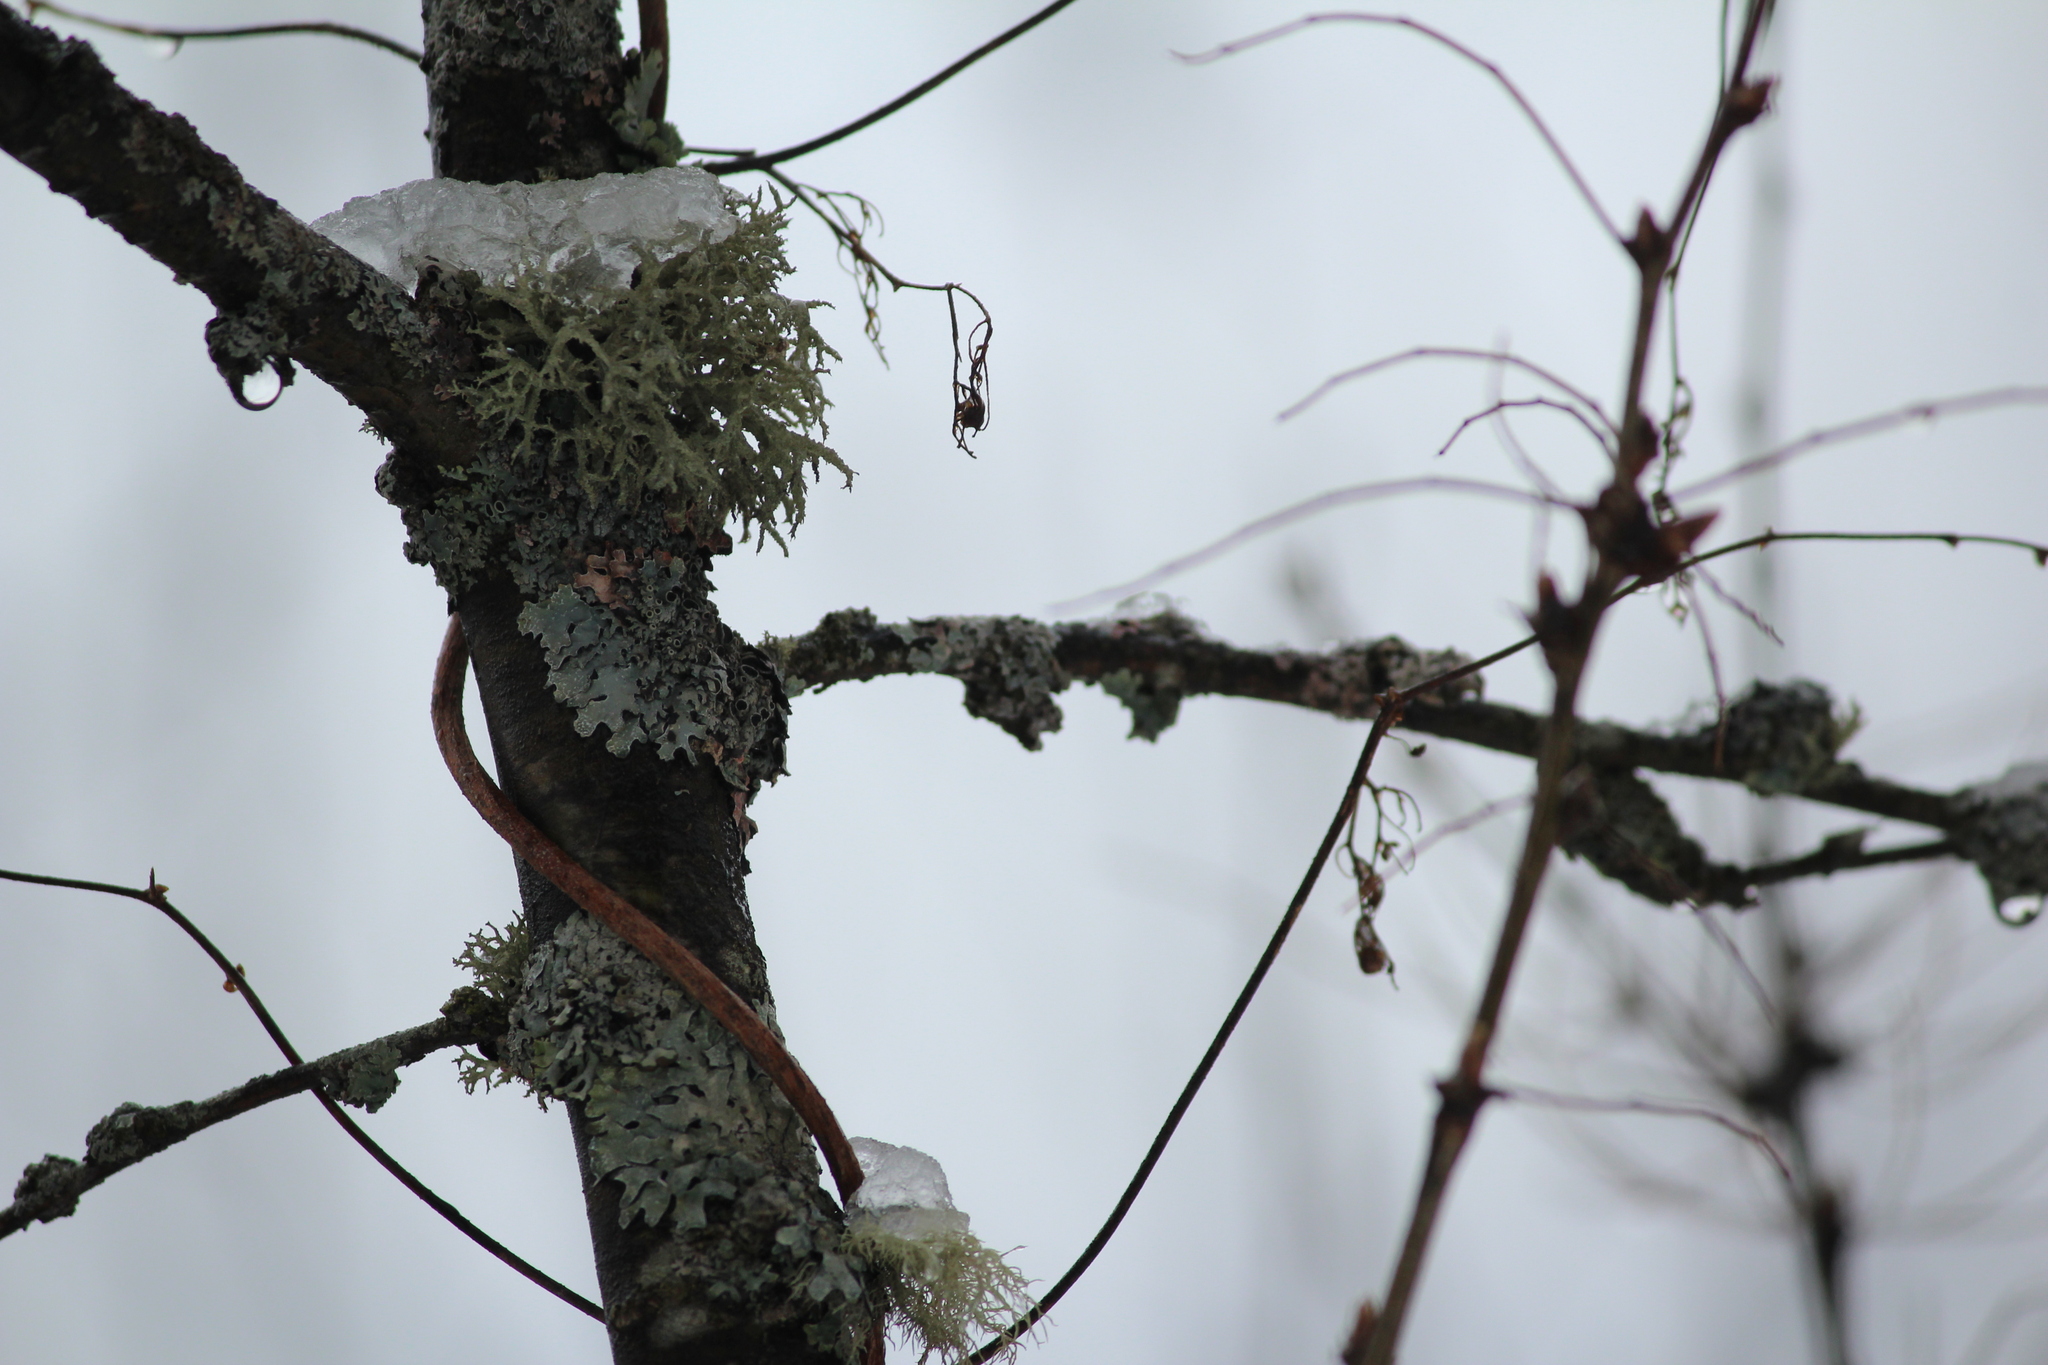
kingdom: Fungi
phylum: Ascomycota
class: Lecanoromycetes
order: Lecanorales
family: Parmeliaceae
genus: Evernia
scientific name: Evernia mesomorpha
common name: Boreal oak moss lichen
